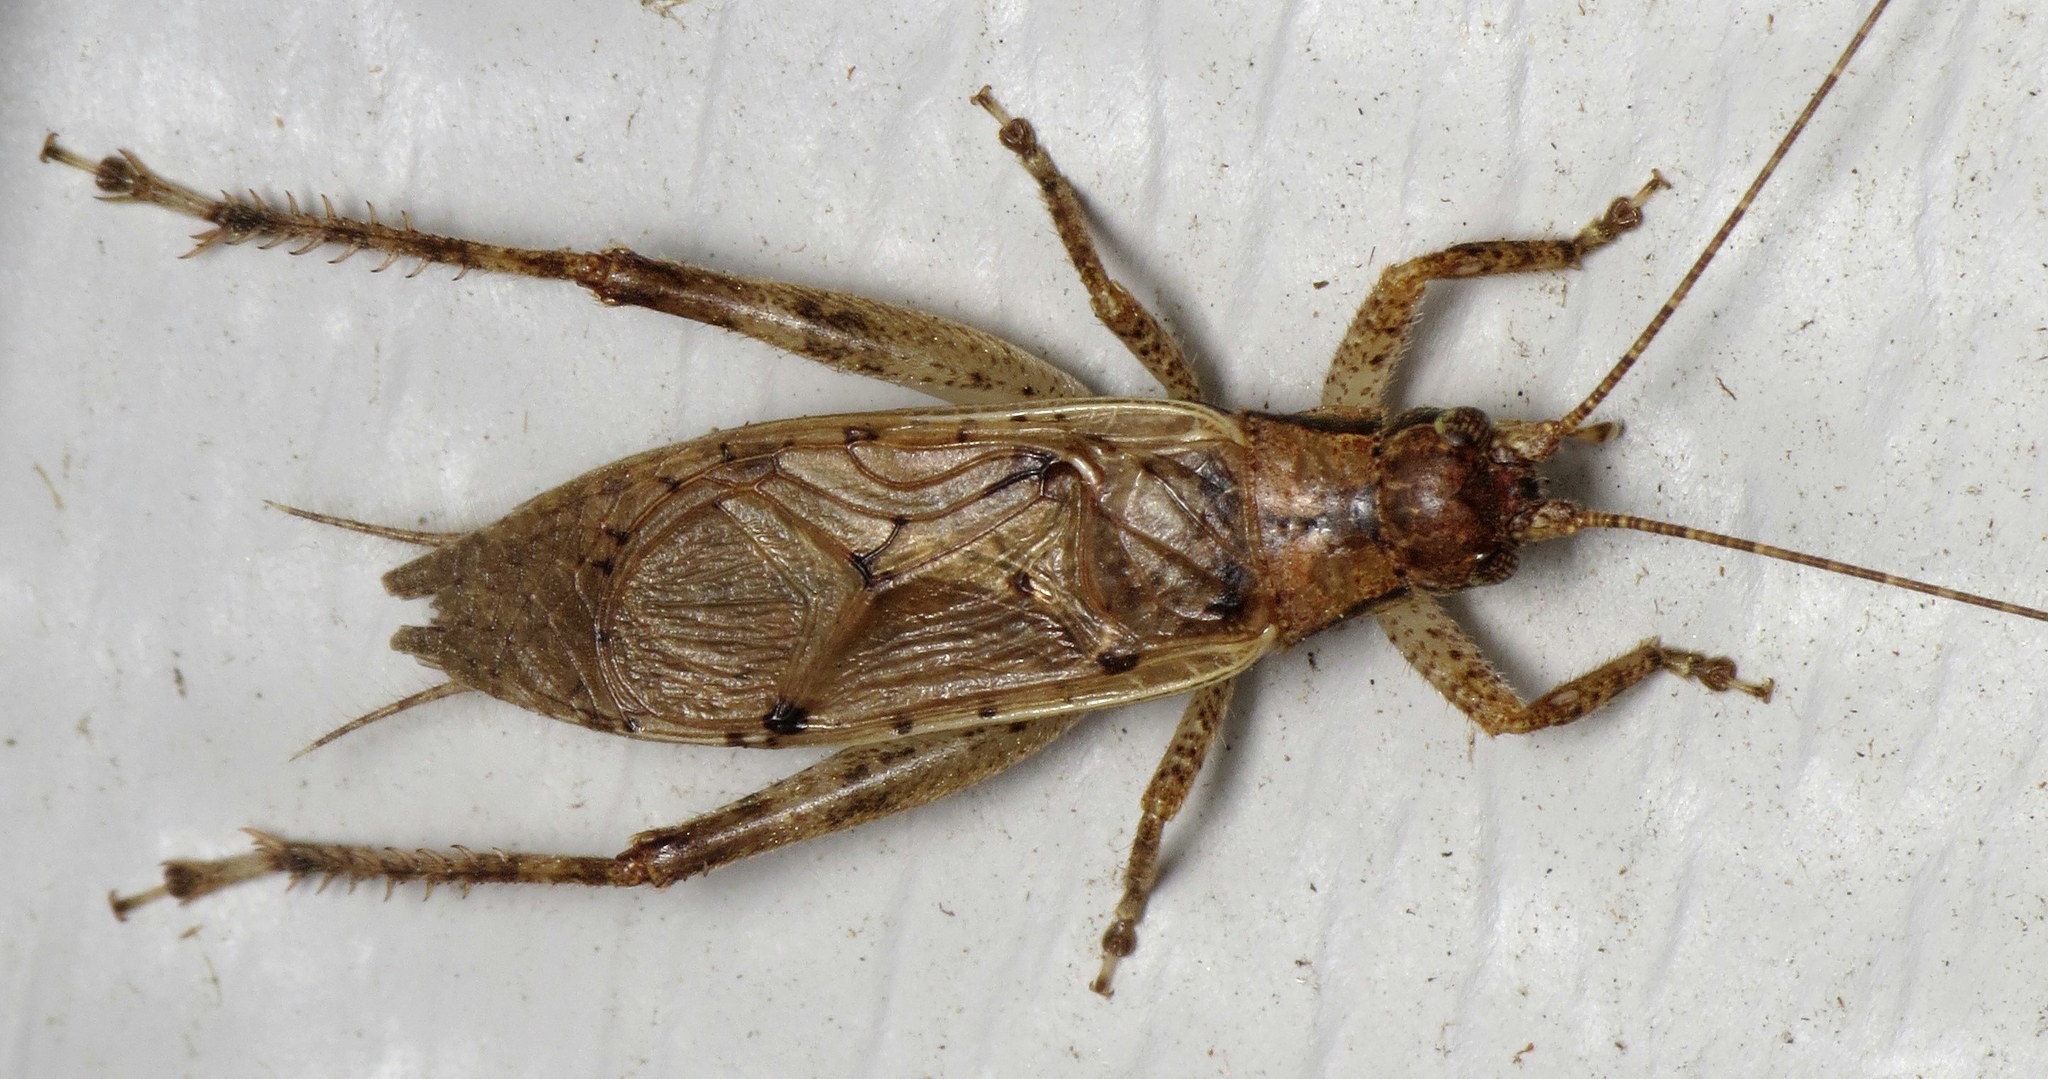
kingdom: Animalia
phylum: Arthropoda
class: Insecta
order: Orthoptera
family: Gryllidae
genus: Hapithus
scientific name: Hapithus saltator
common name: Jumping bush cricket
